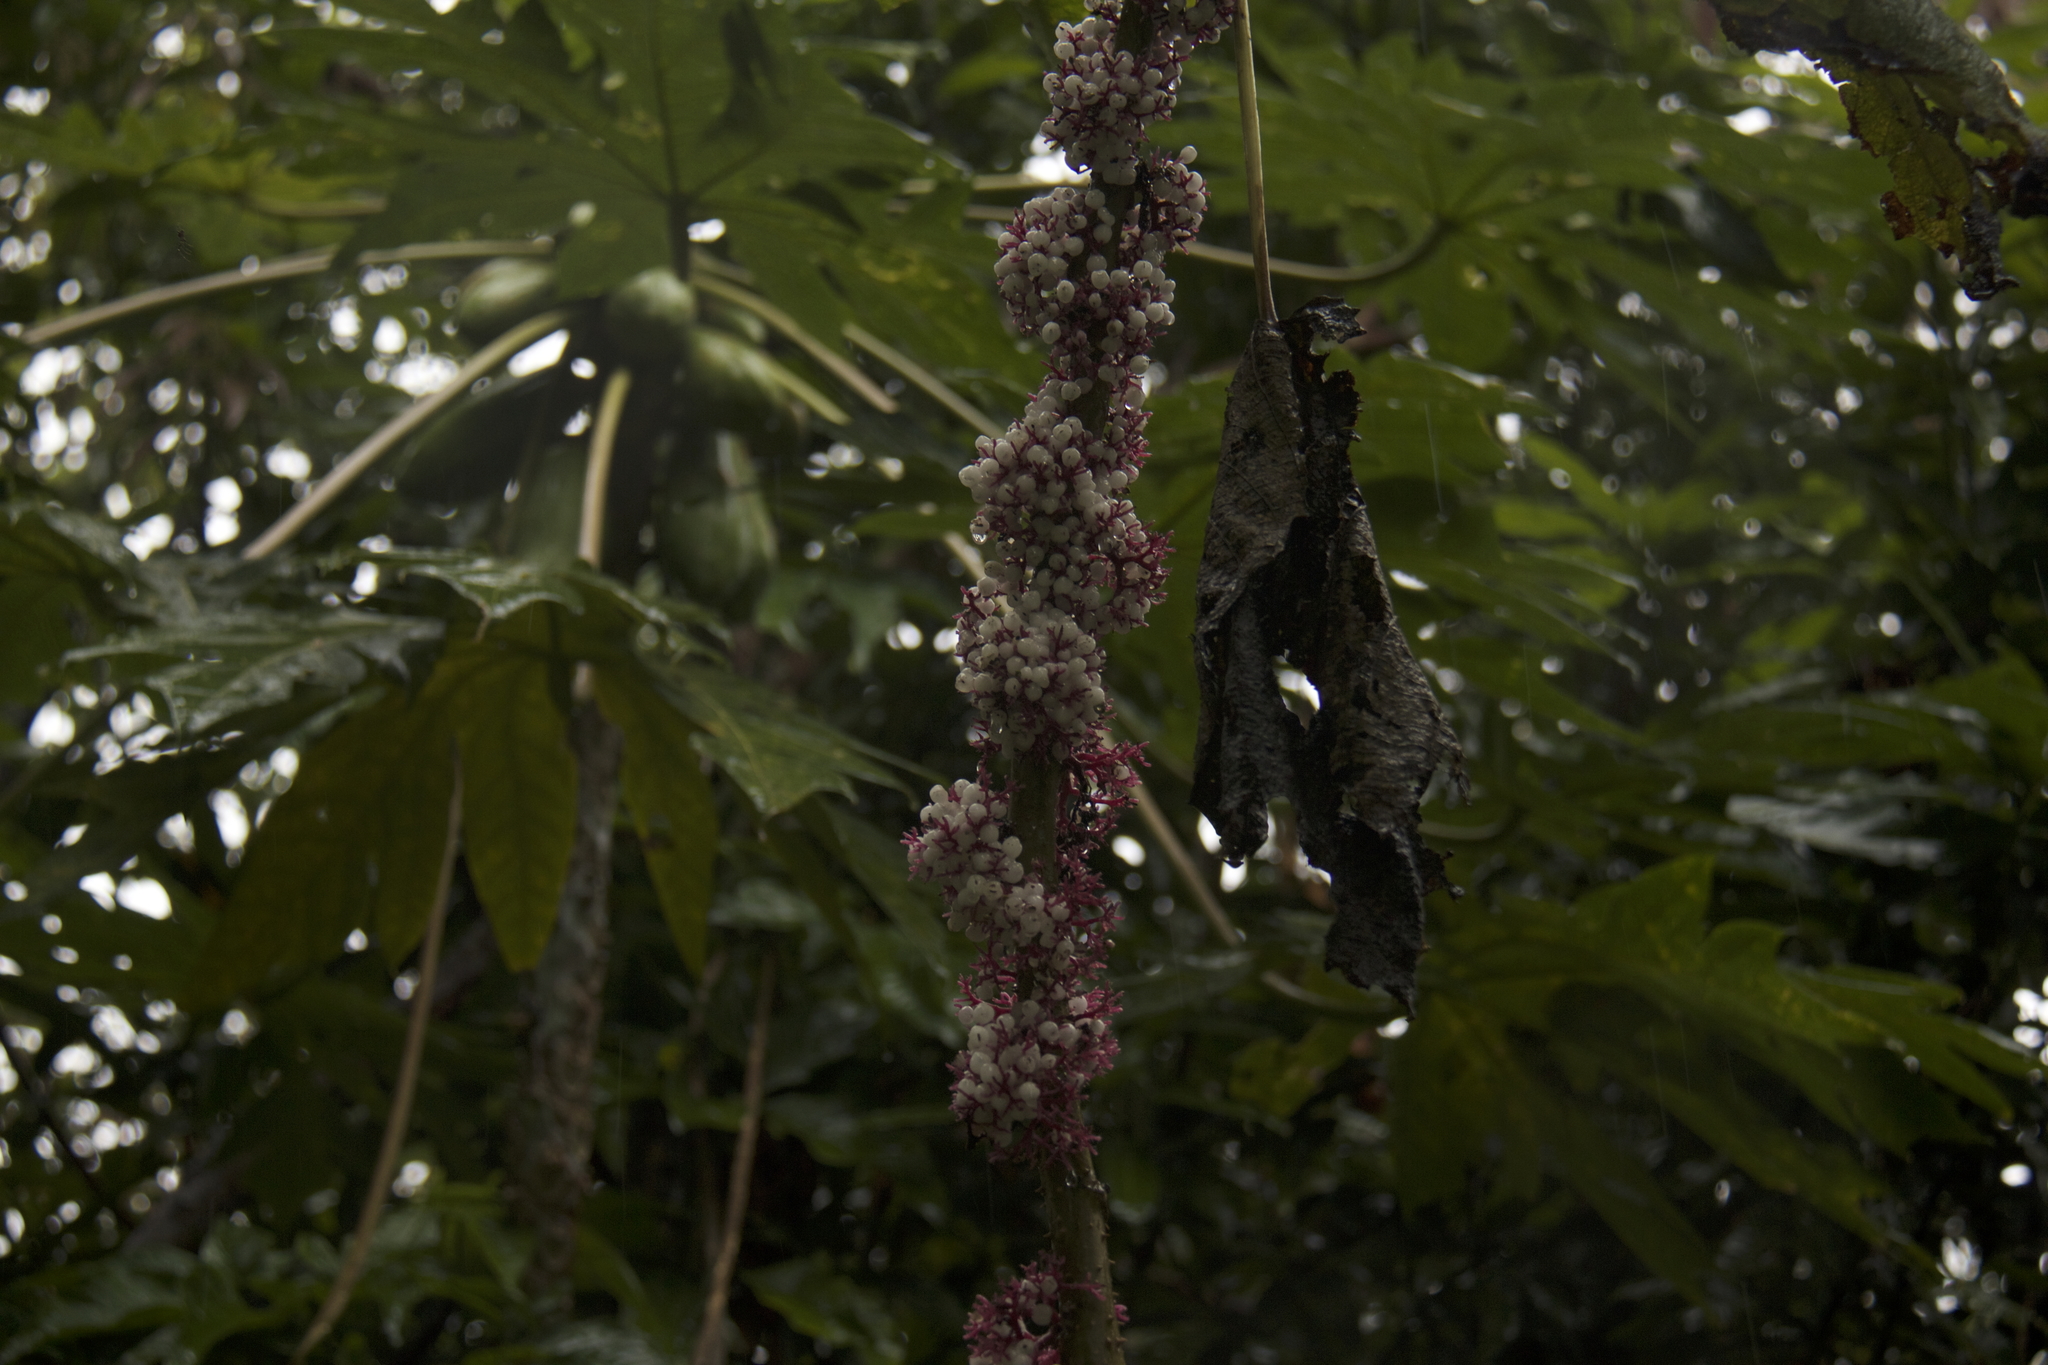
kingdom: Plantae
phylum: Tracheophyta
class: Magnoliopsida
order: Rosales
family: Urticaceae
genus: Urera
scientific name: Urera baccifera
